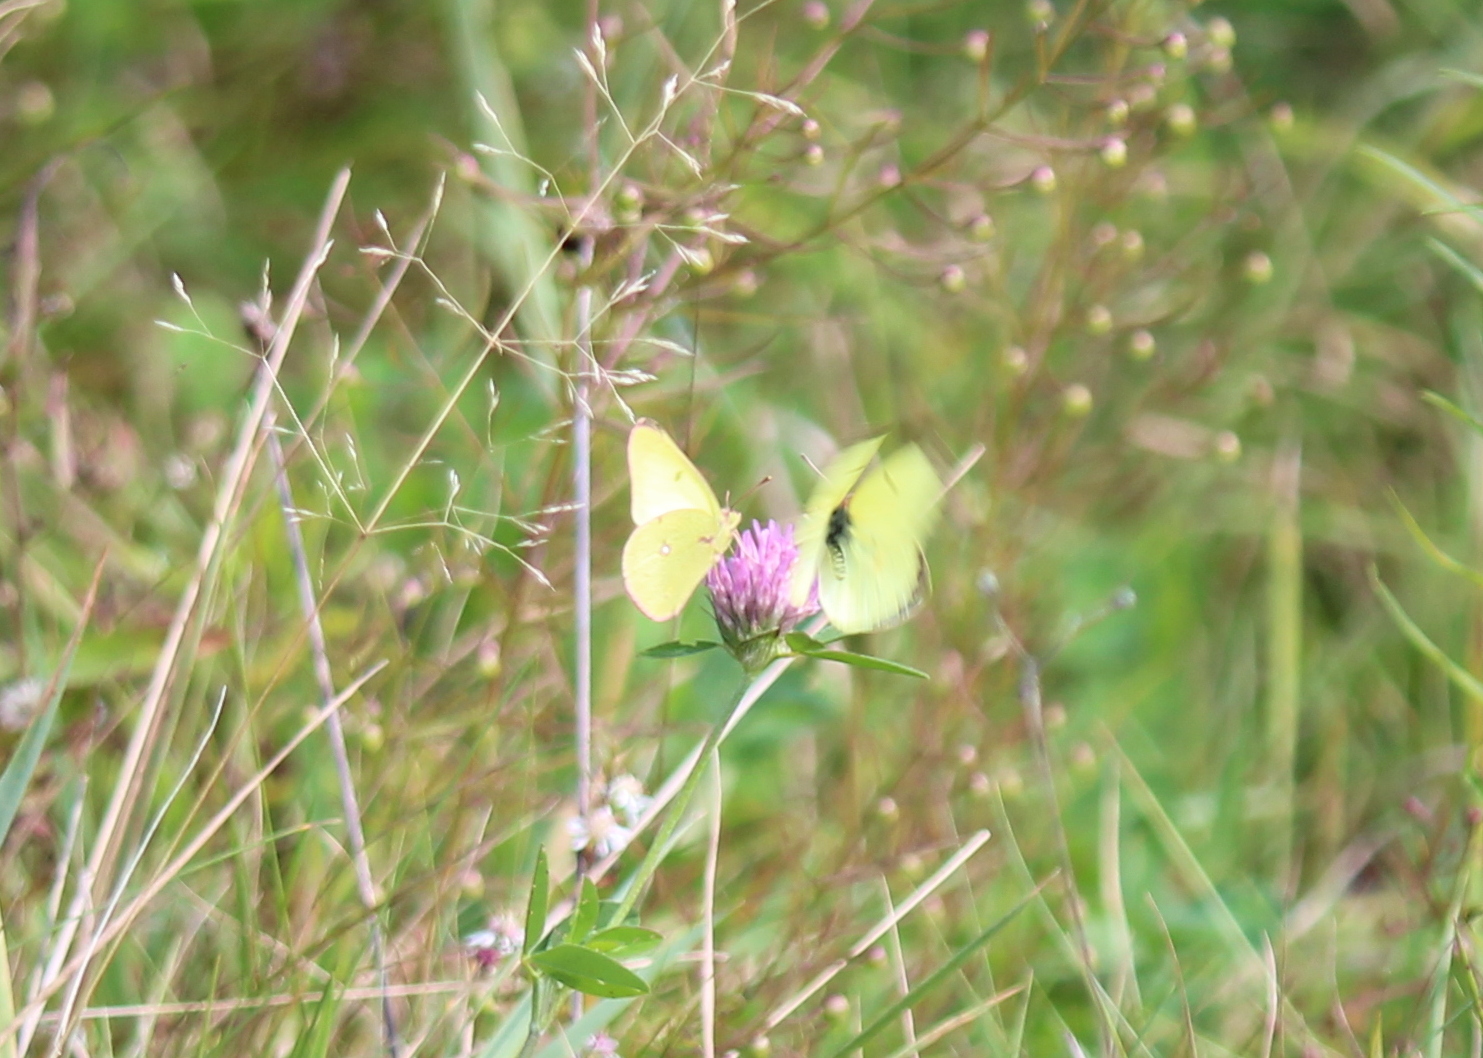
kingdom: Animalia
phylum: Arthropoda
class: Insecta
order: Lepidoptera
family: Pieridae
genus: Colias
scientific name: Colias philodice
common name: Clouded sulphur
